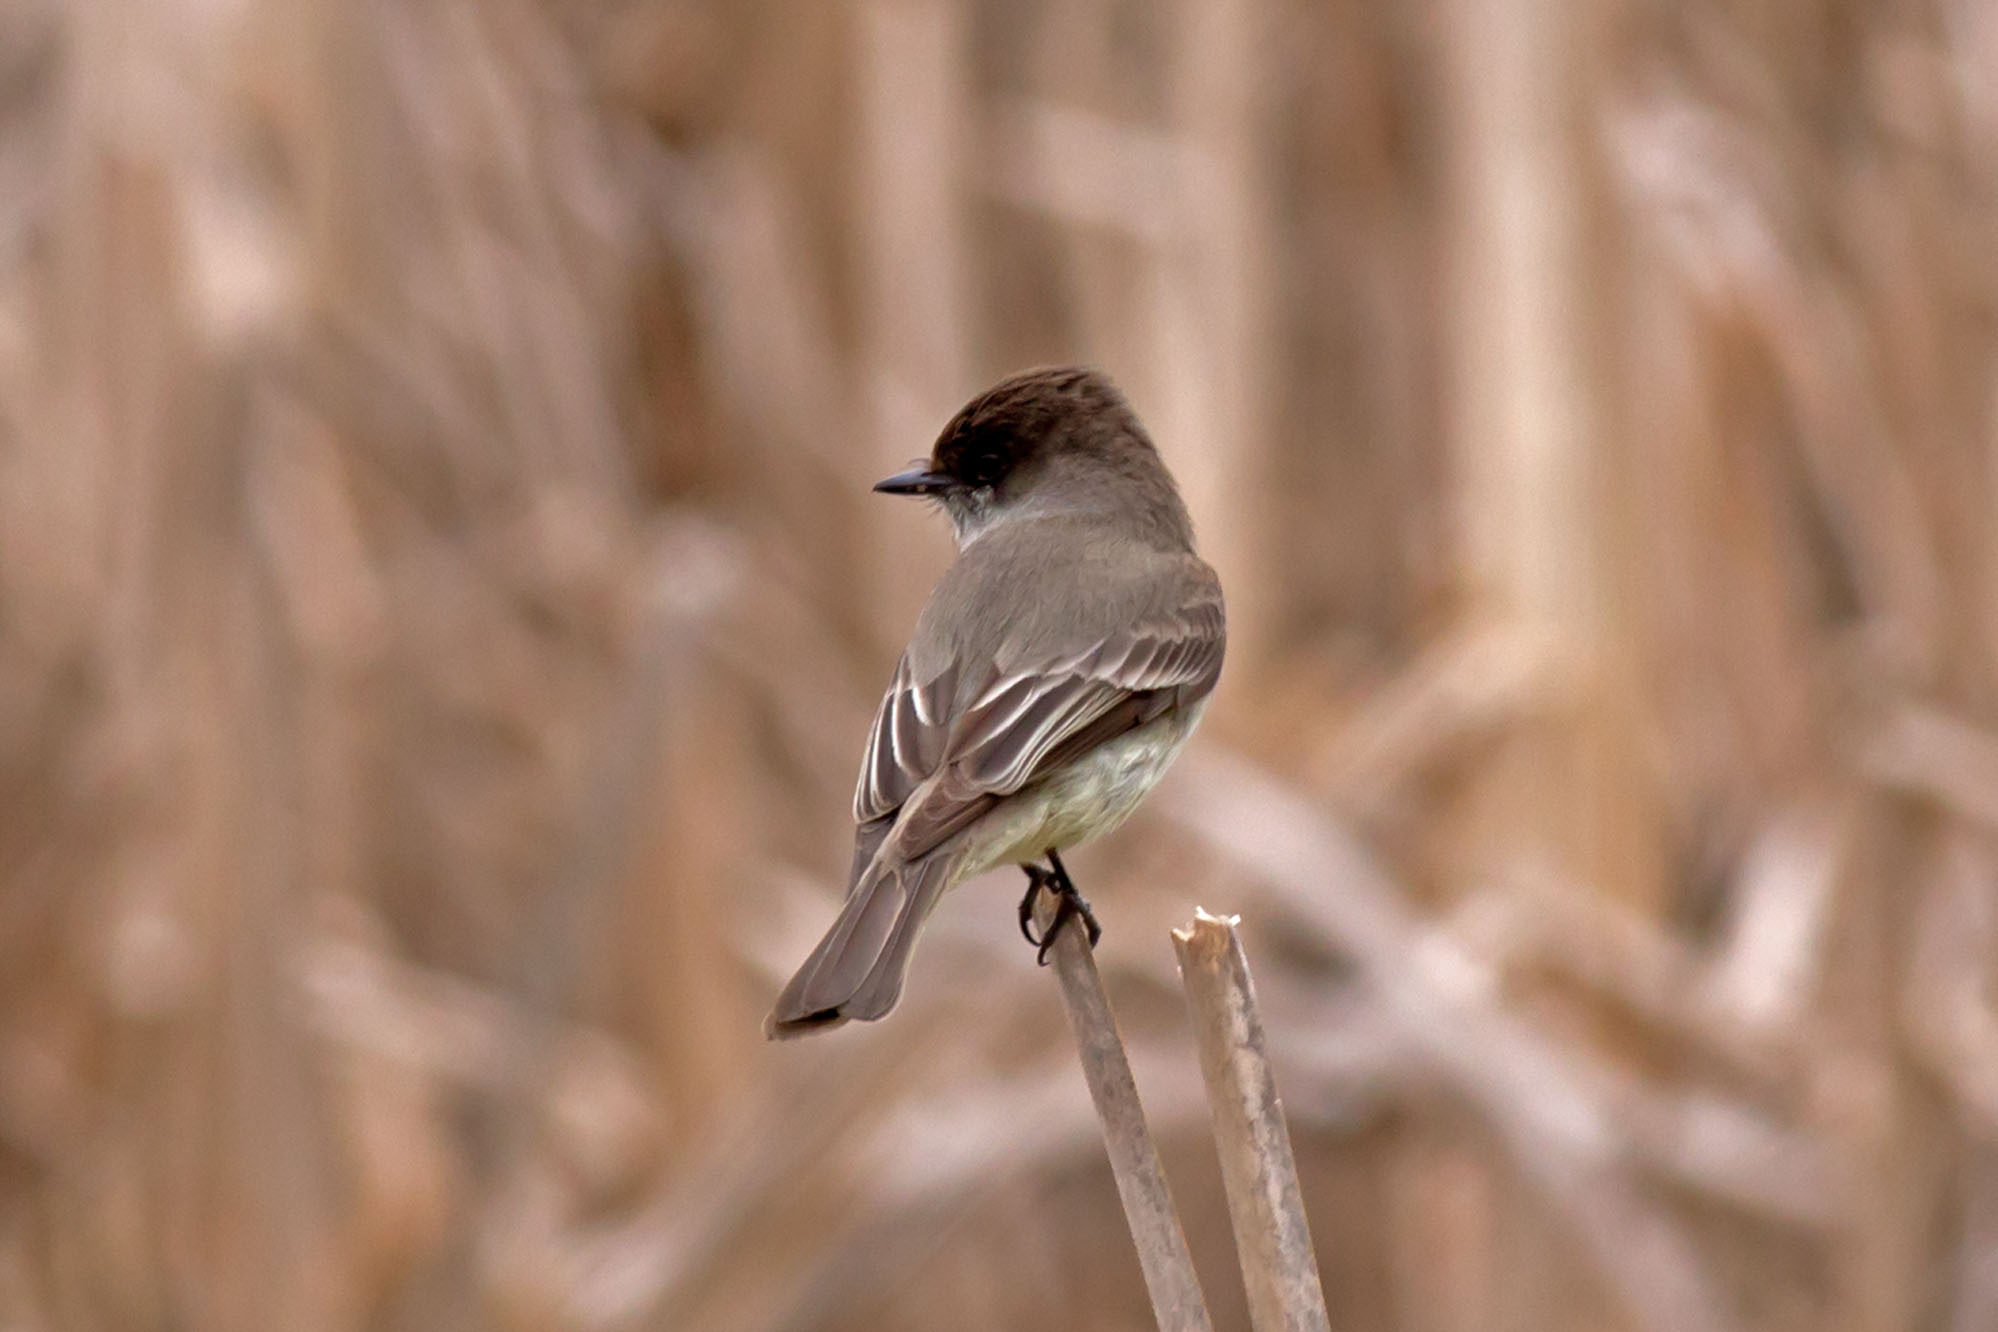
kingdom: Animalia
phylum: Chordata
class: Aves
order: Passeriformes
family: Tyrannidae
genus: Sayornis
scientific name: Sayornis phoebe
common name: Eastern phoebe
